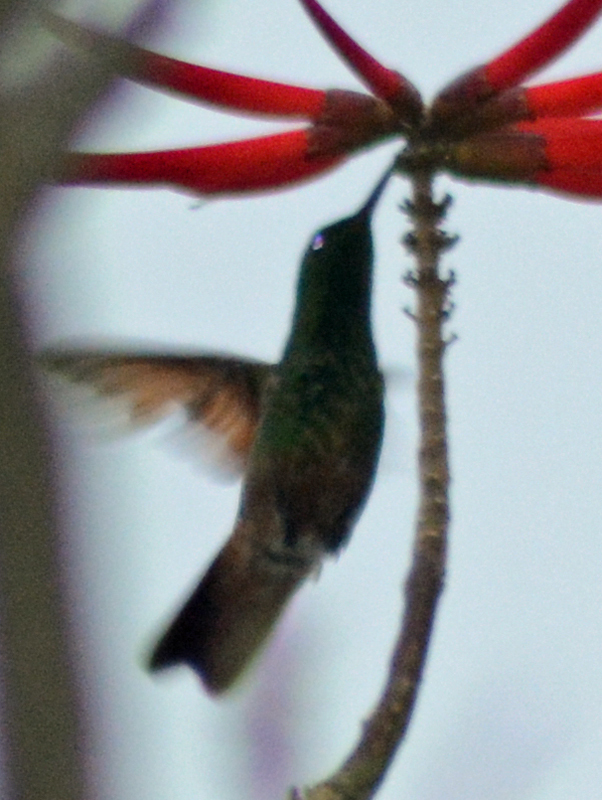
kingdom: Animalia
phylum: Chordata
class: Aves
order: Apodiformes
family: Trochilidae
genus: Saucerottia
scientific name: Saucerottia beryllina
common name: Berylline hummingbird
